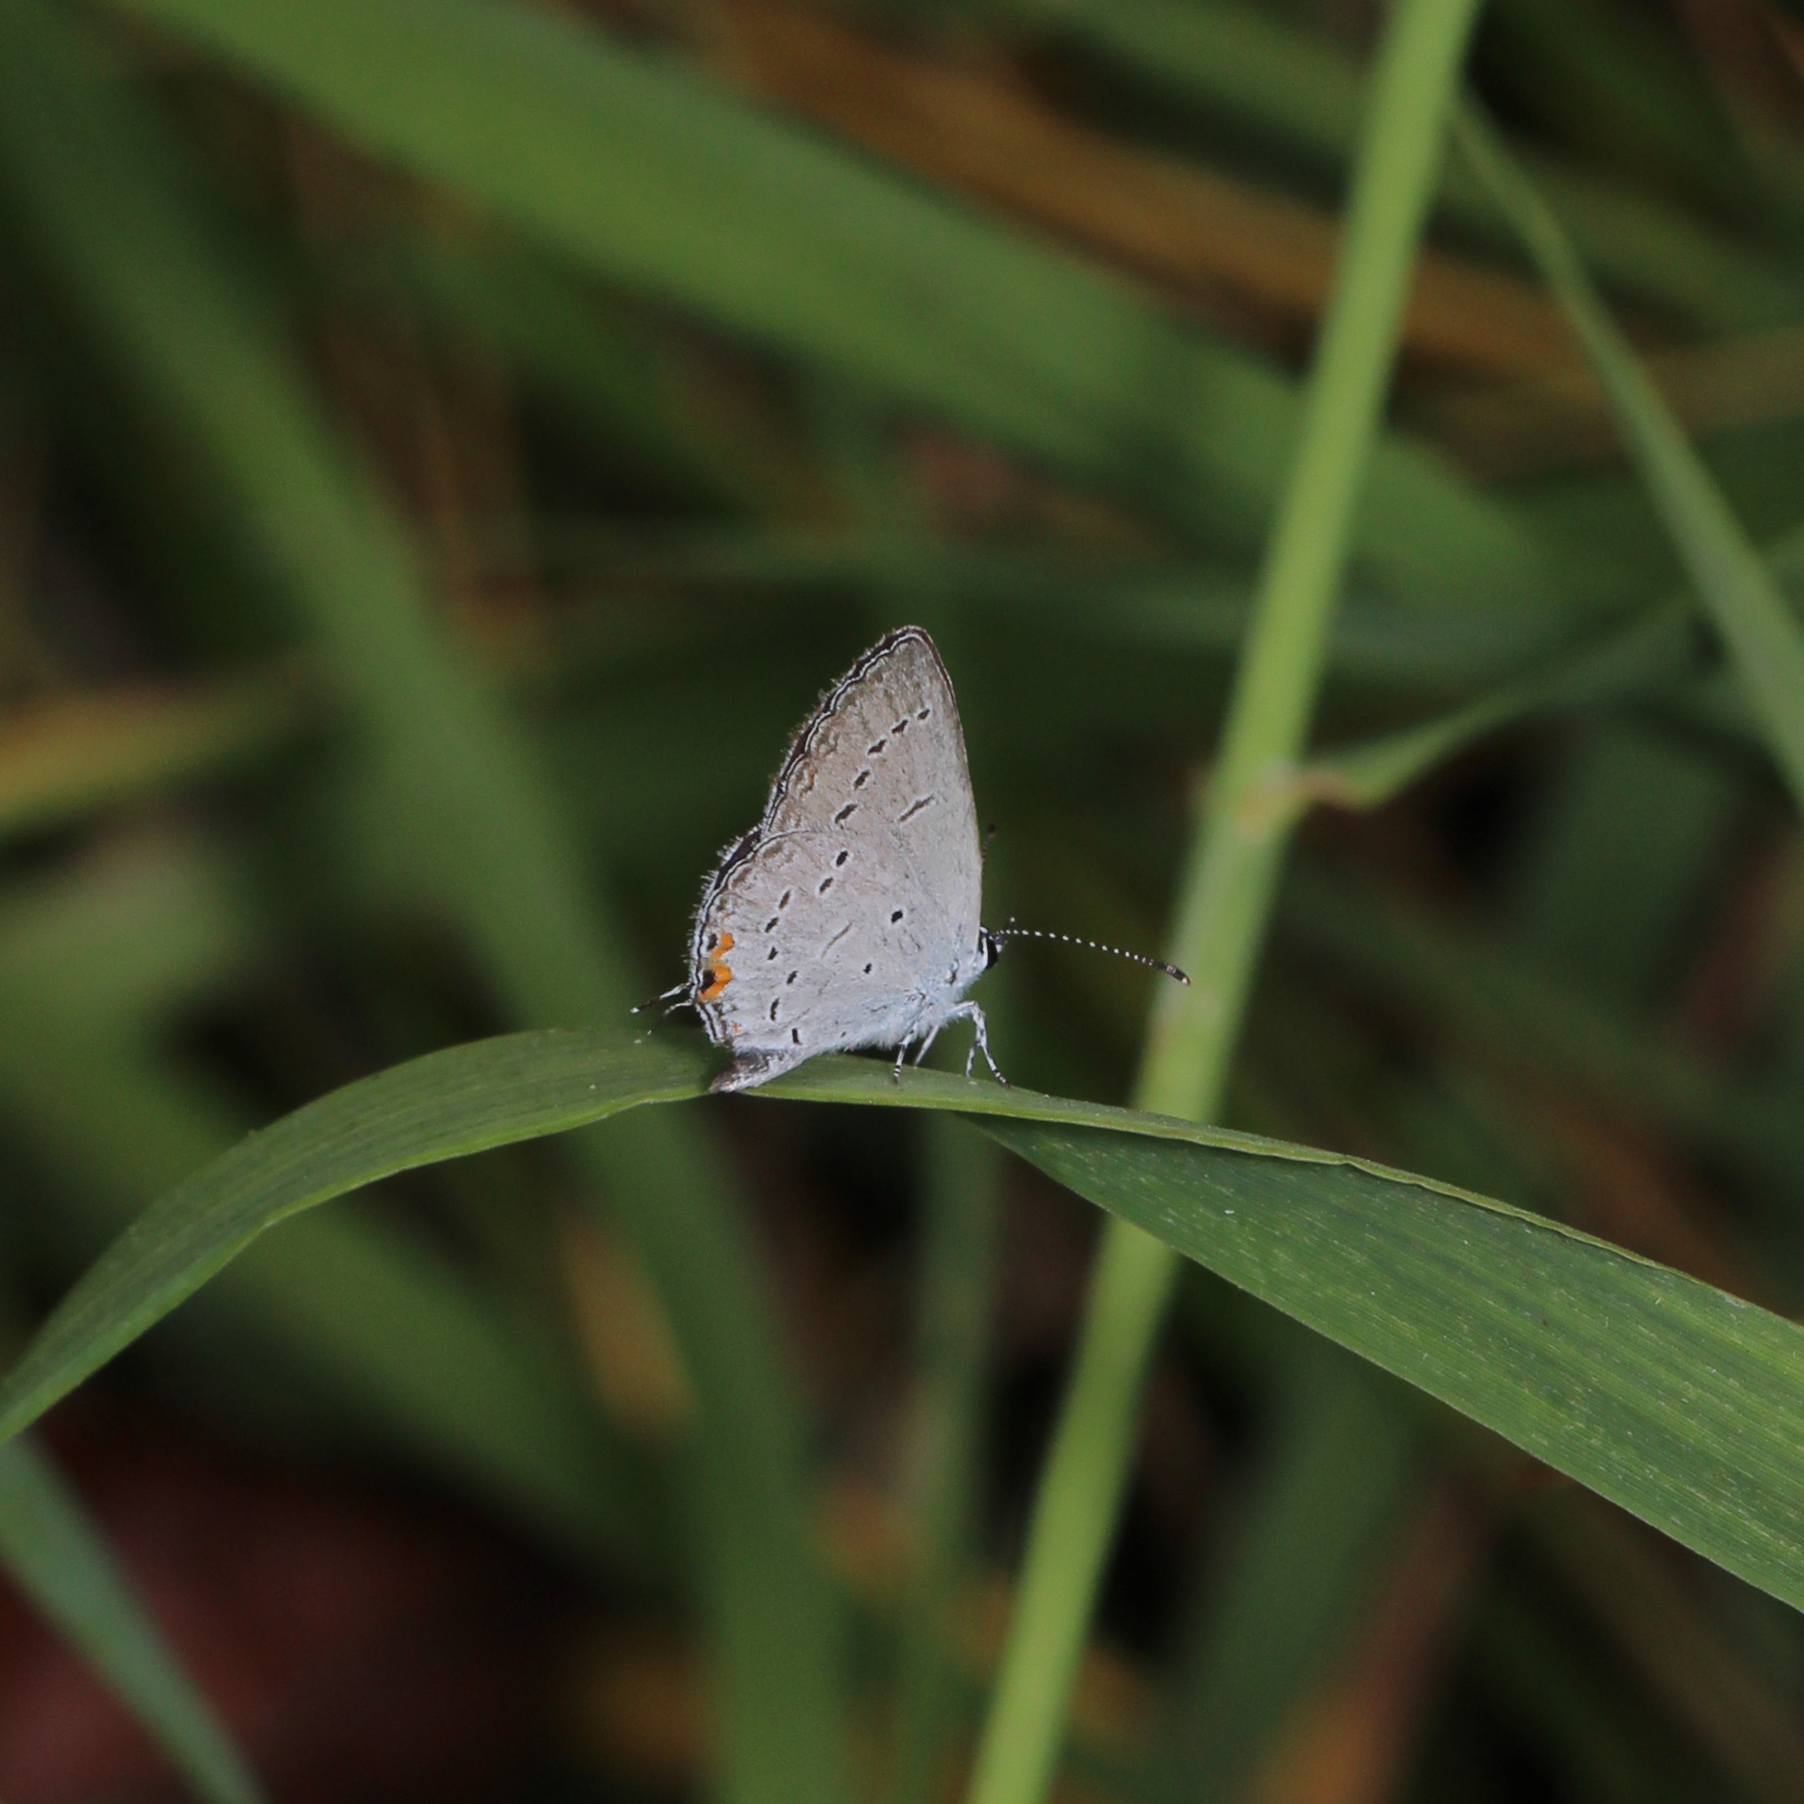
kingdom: Animalia
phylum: Arthropoda
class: Insecta
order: Lepidoptera
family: Lycaenidae
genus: Elkalyce
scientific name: Elkalyce comyntas
